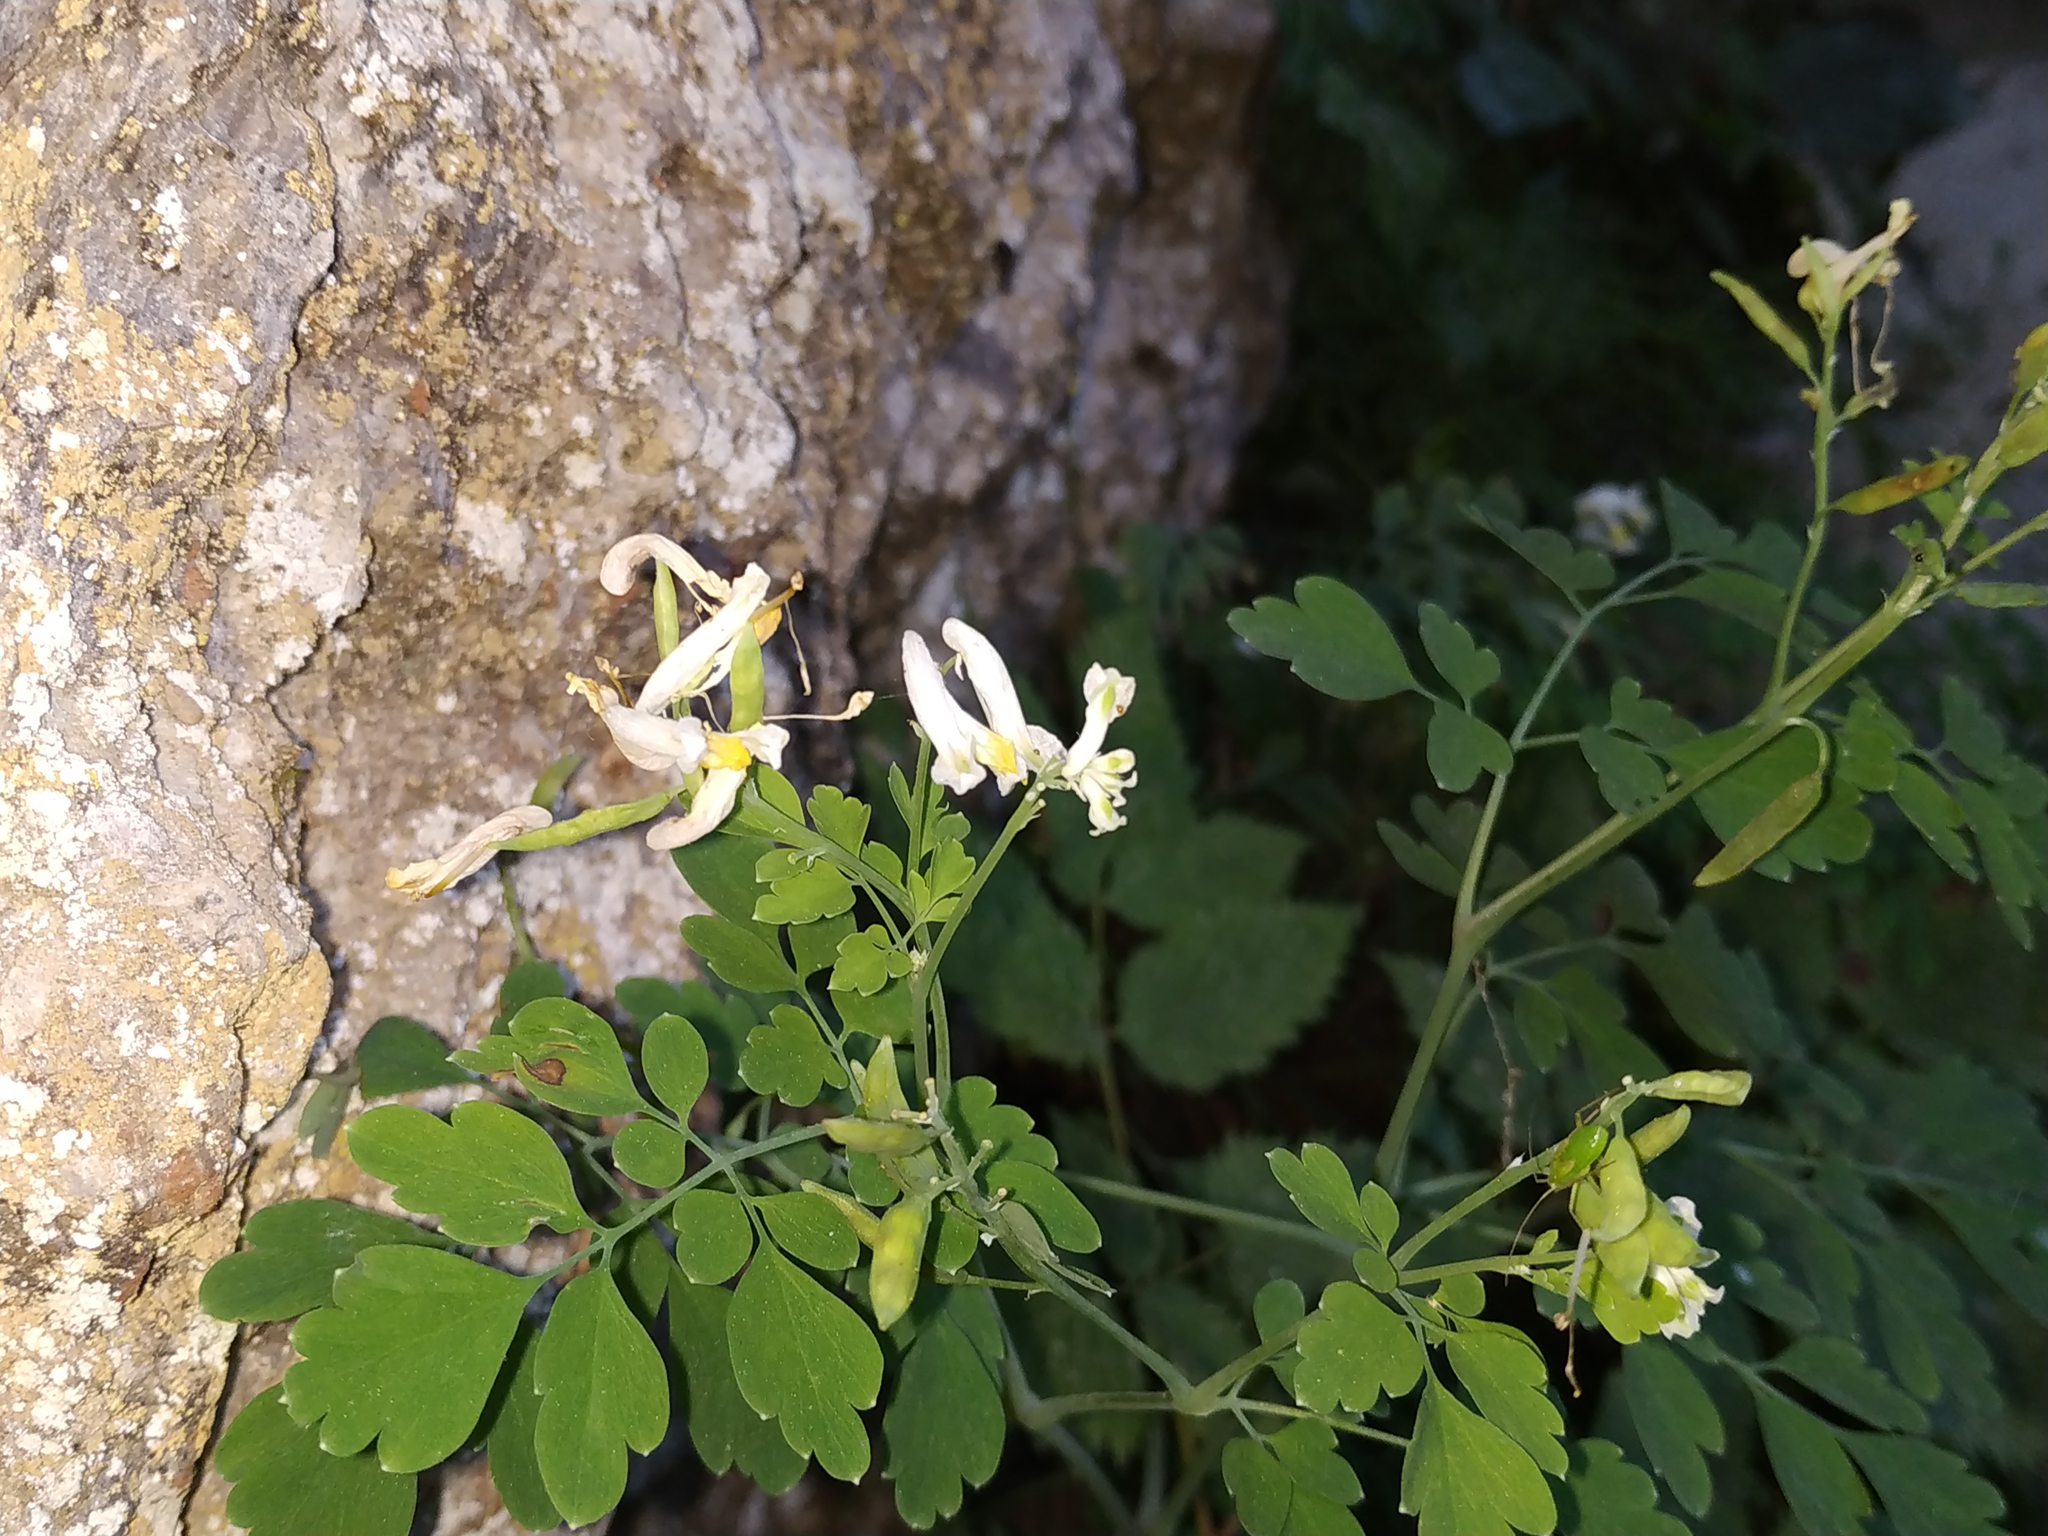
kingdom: Plantae
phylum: Tracheophyta
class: Magnoliopsida
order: Ranunculales
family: Papaveraceae
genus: Pseudofumaria
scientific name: Pseudofumaria alba
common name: Pale corydalis
